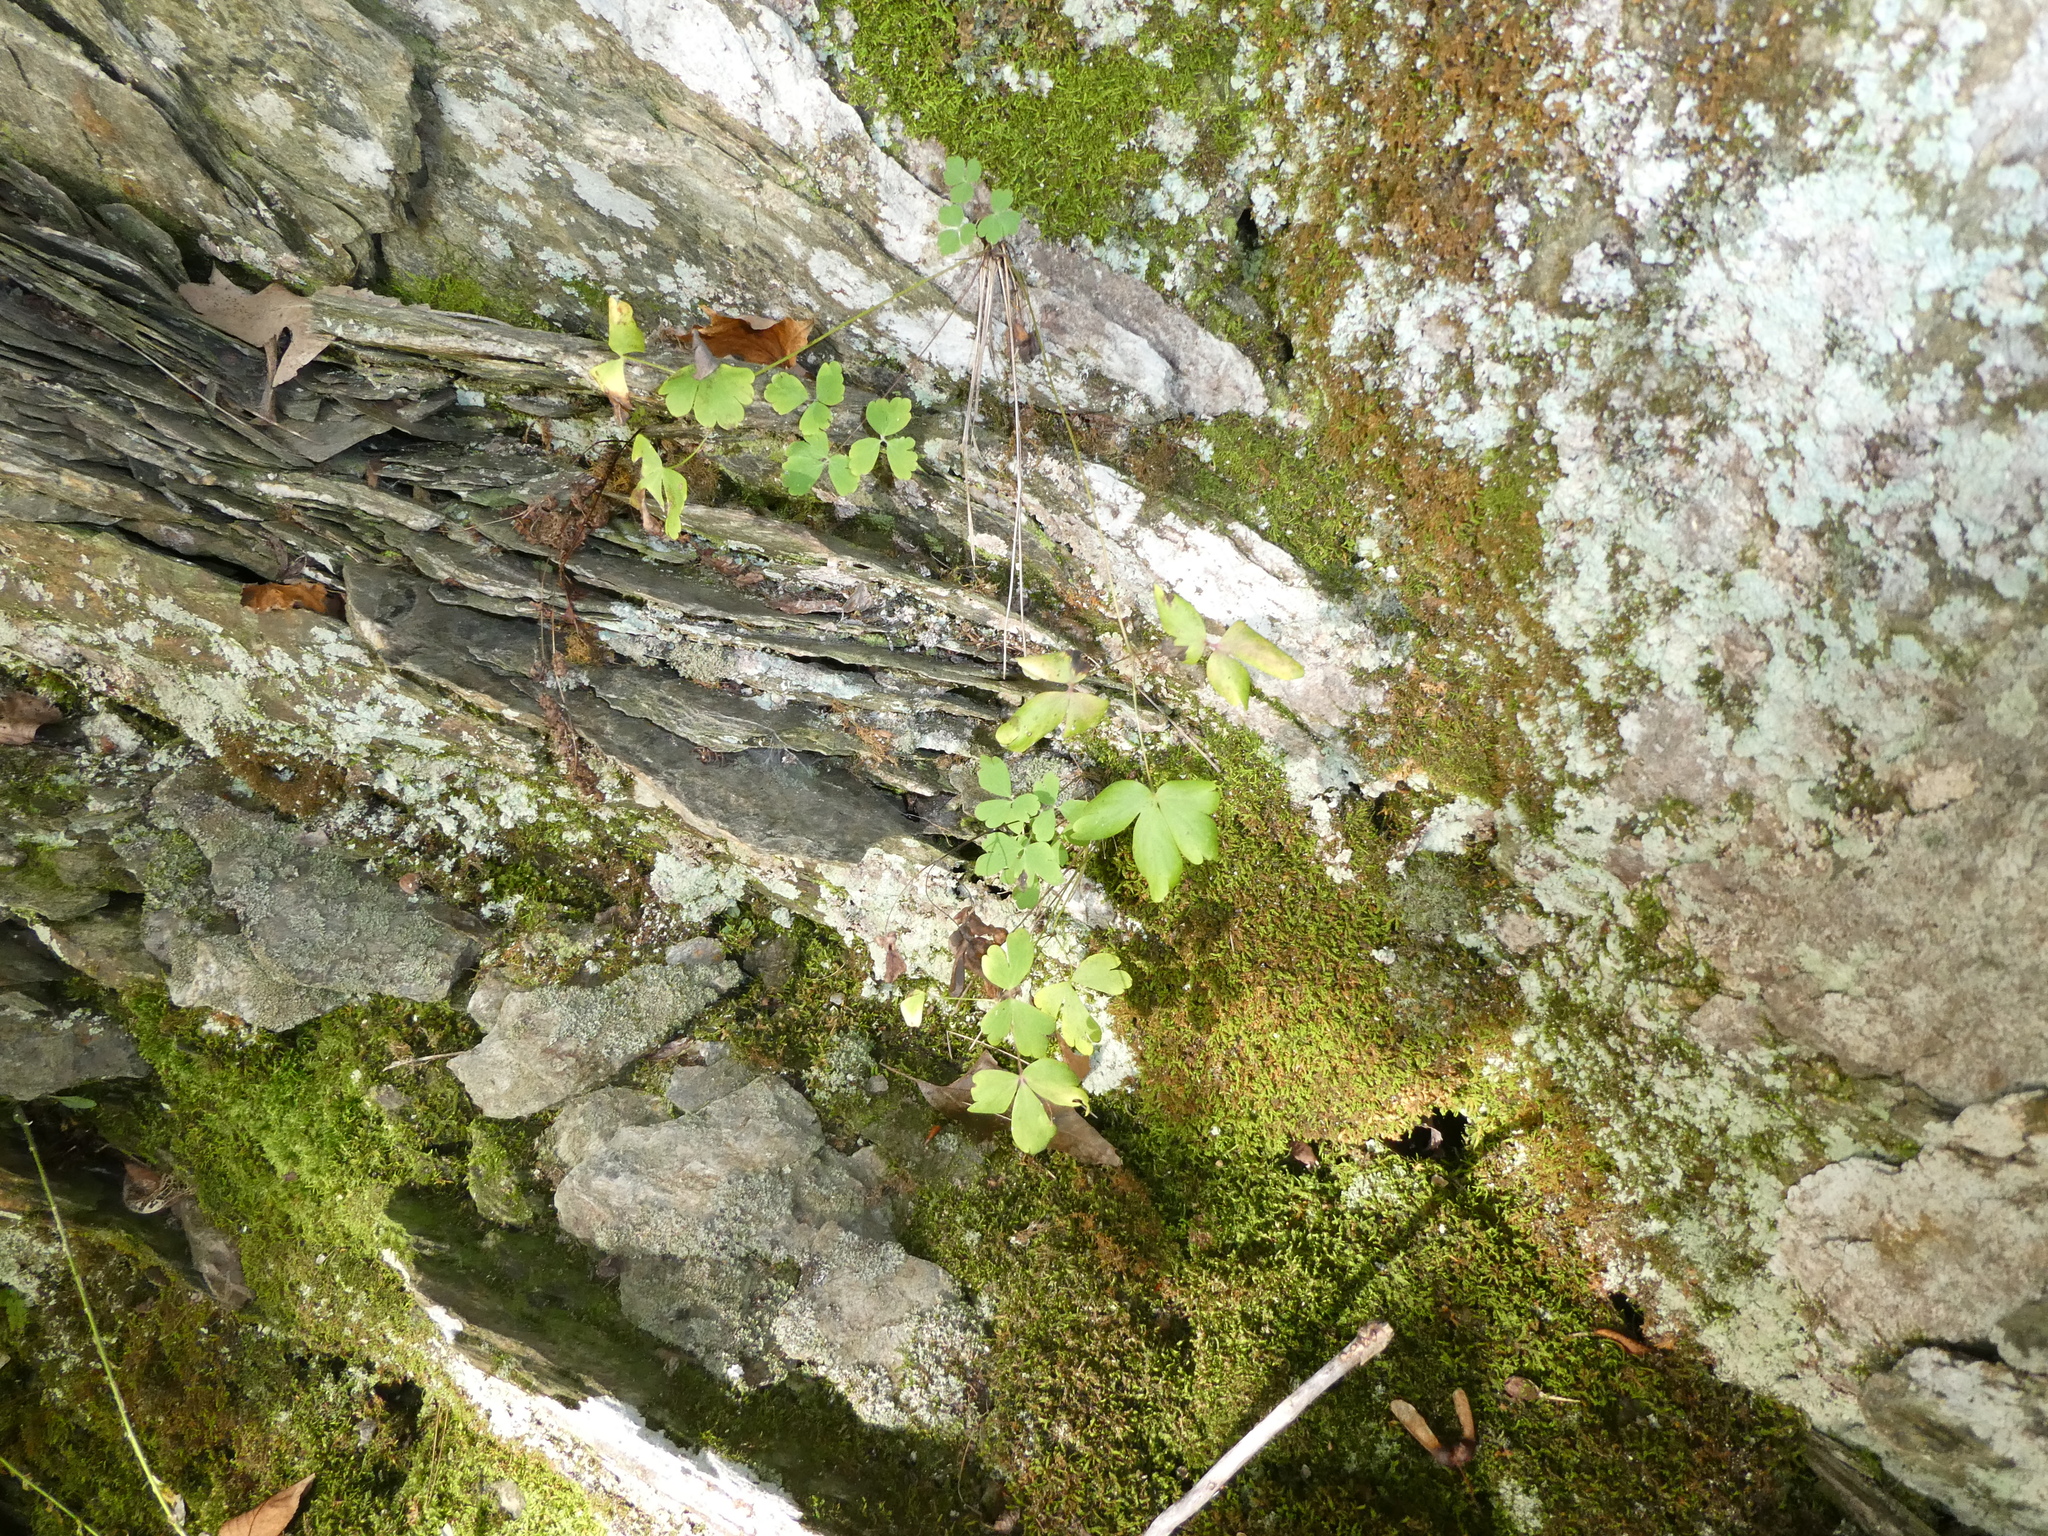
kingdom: Plantae
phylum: Tracheophyta
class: Magnoliopsida
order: Ranunculales
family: Ranunculaceae
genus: Aquilegia
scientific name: Aquilegia canadensis
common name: American columbine
